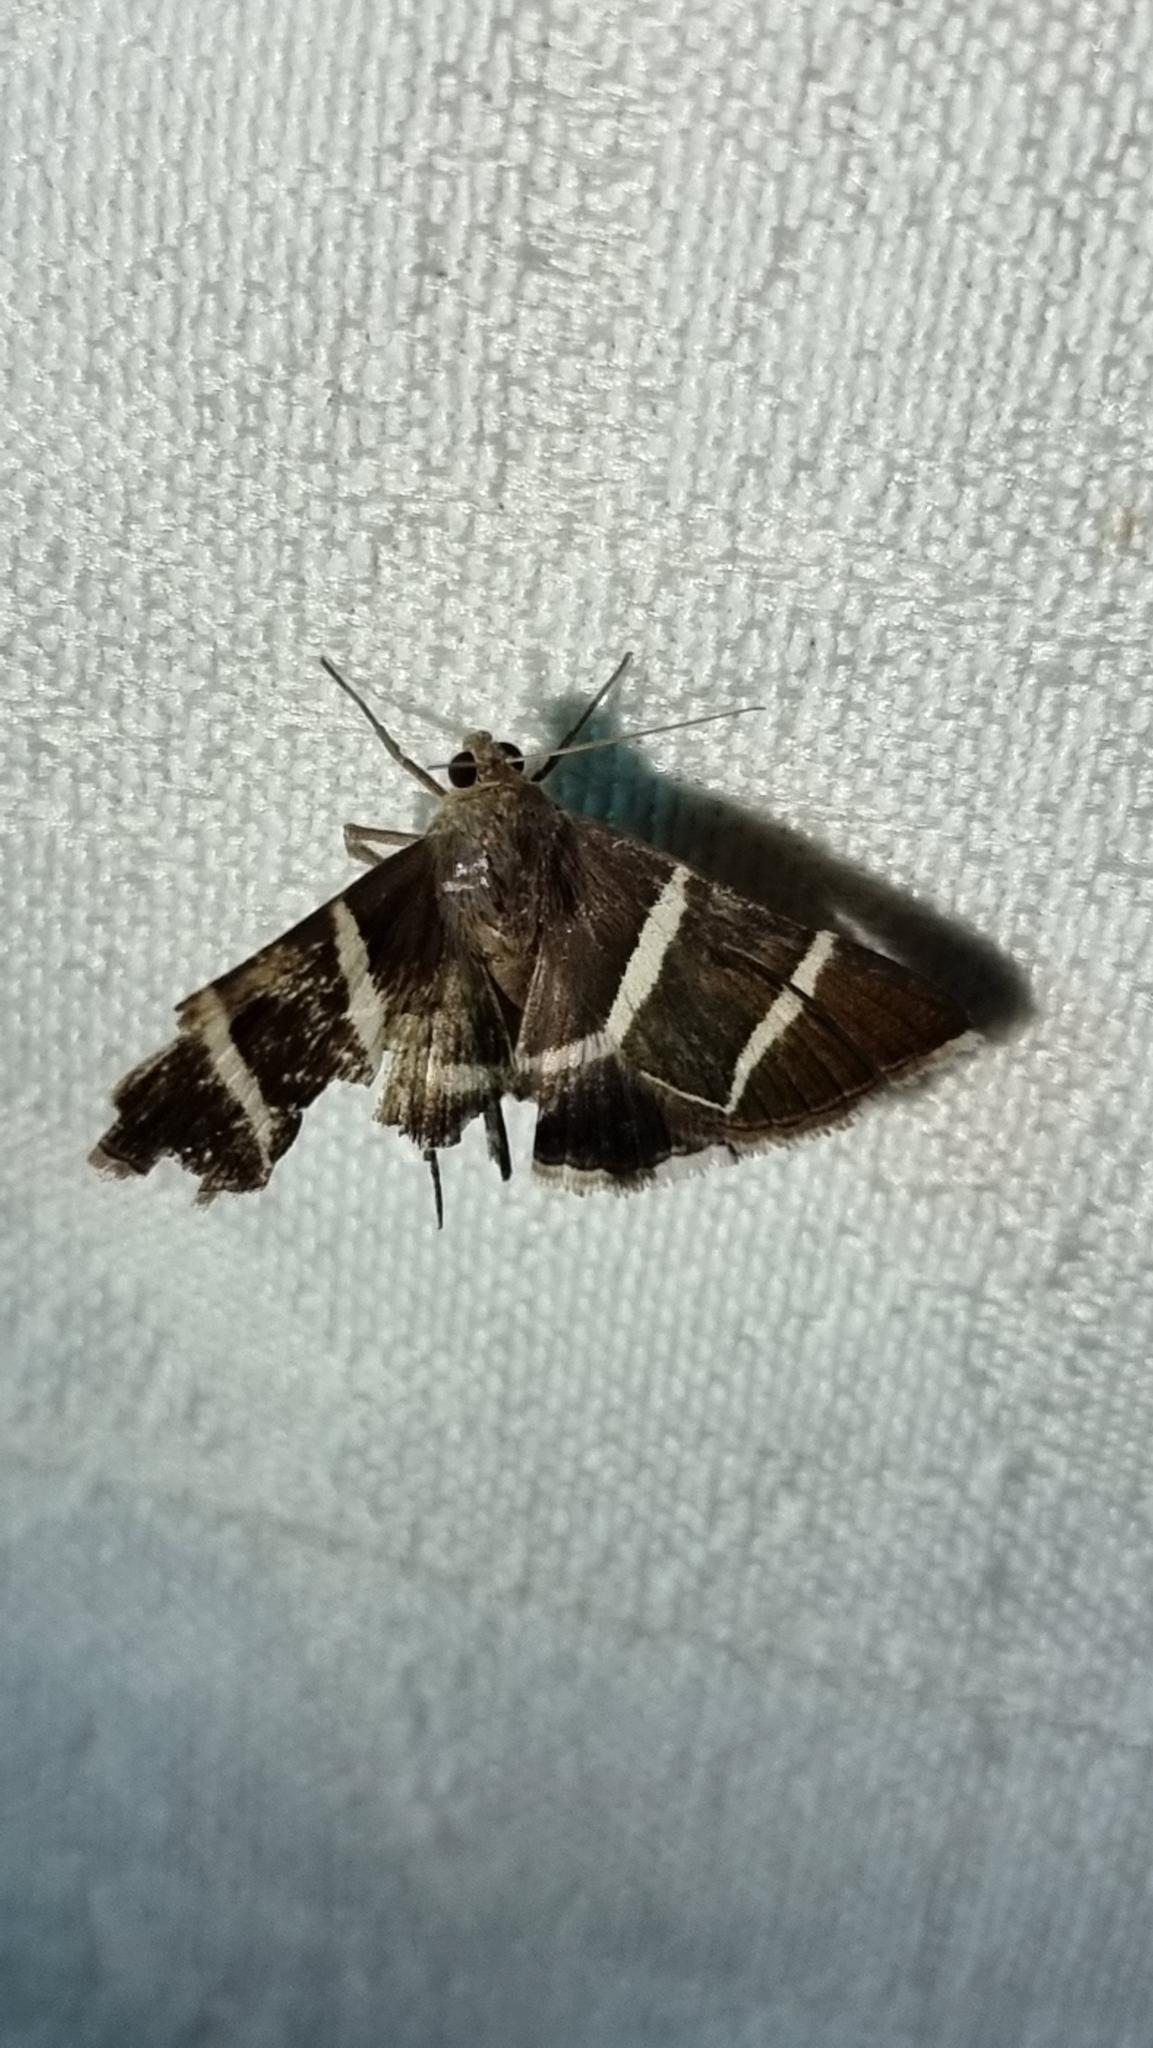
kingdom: Animalia
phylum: Arthropoda
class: Insecta
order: Lepidoptera
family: Erebidae
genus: Grammodes
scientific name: Grammodes justa
